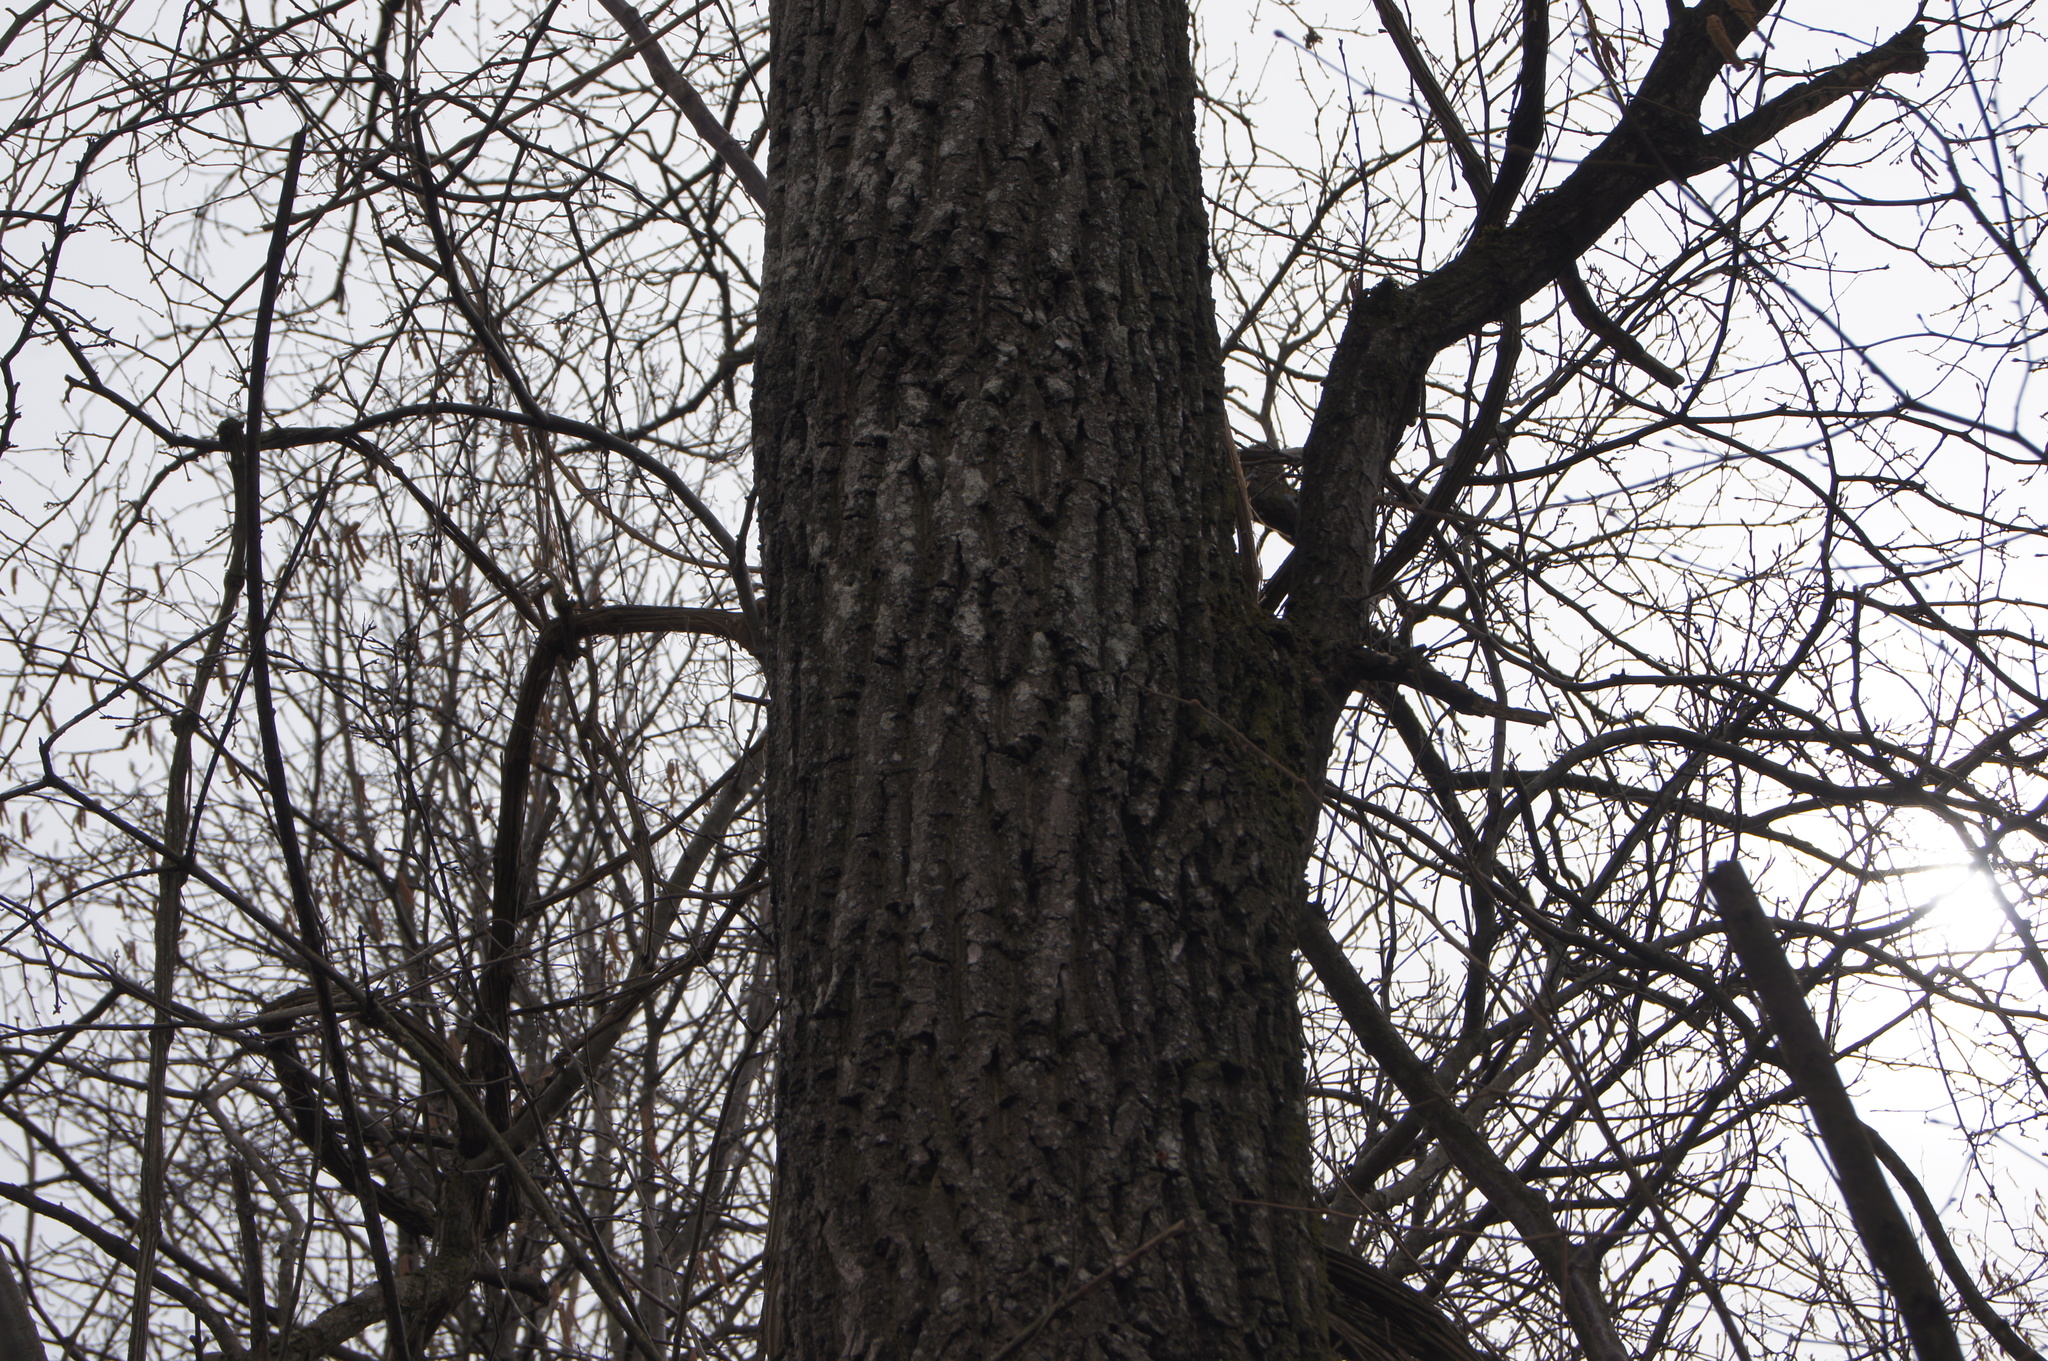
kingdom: Plantae
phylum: Tracheophyta
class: Magnoliopsida
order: Fagales
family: Fagaceae
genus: Quercus
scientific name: Quercus robur
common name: Pedunculate oak
